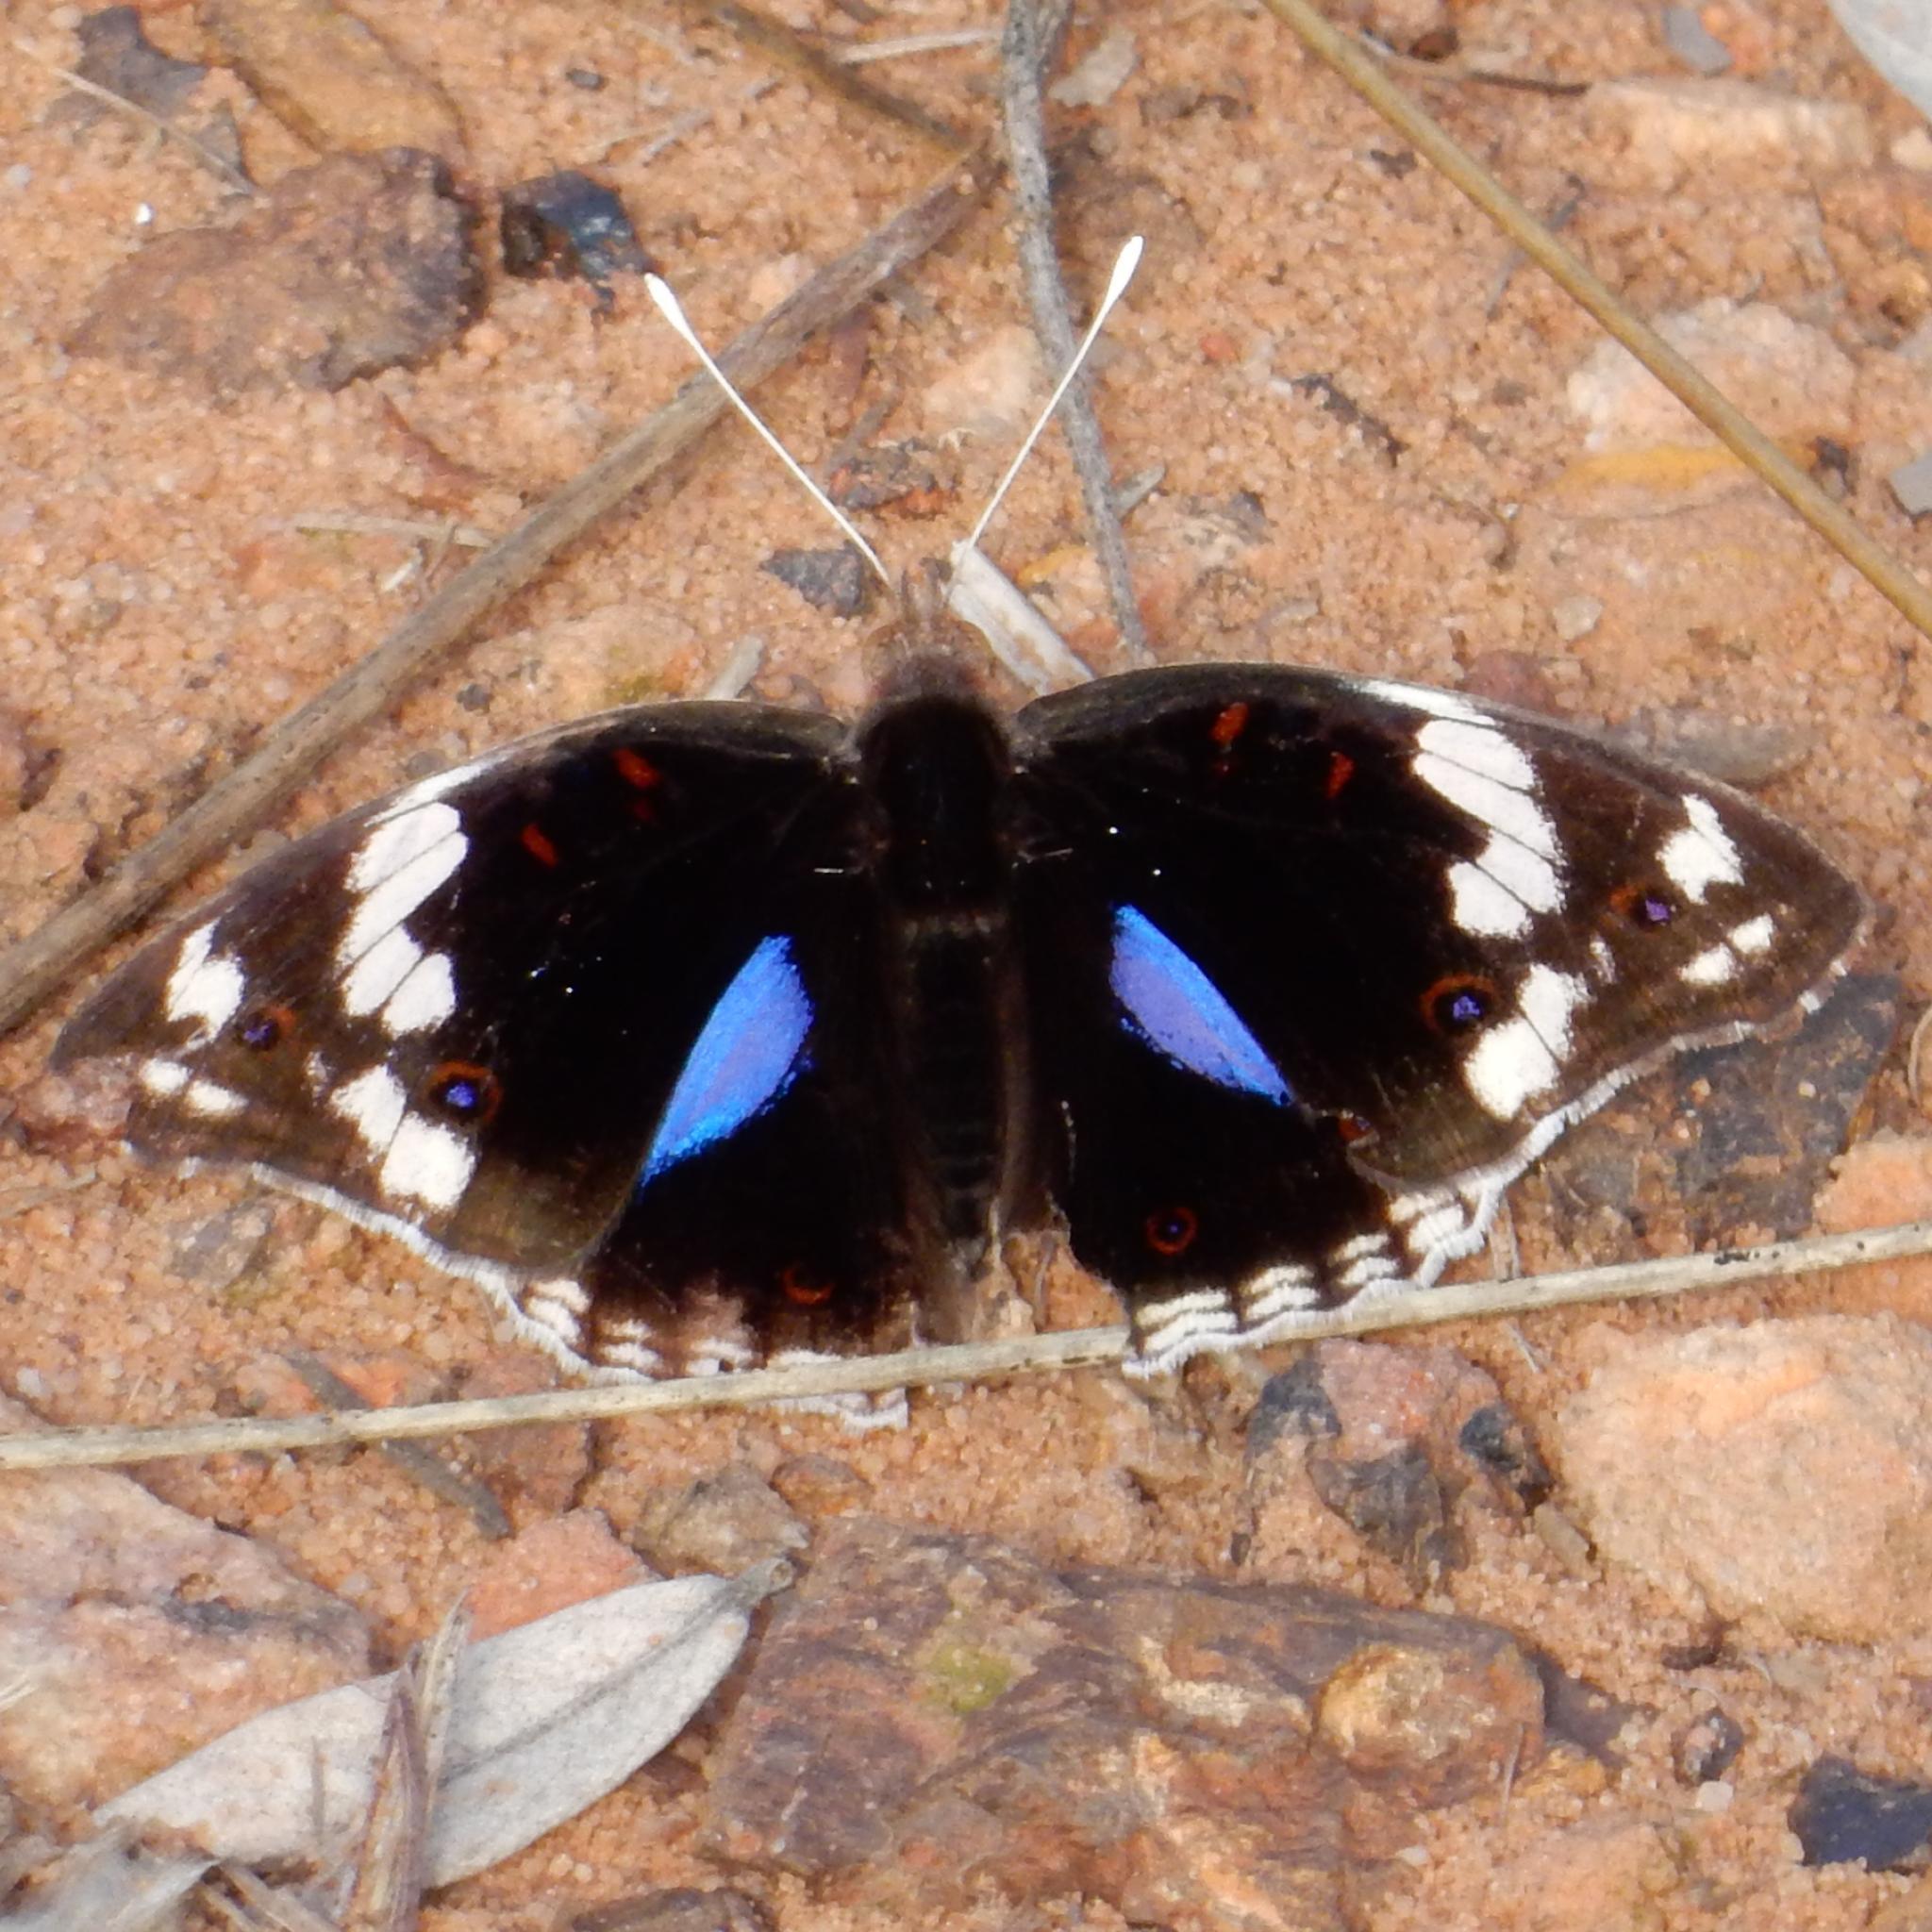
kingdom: Animalia
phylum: Arthropoda
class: Insecta
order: Lepidoptera
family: Nymphalidae
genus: Junonia
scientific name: Junonia oenone
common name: Dark blue pansy
